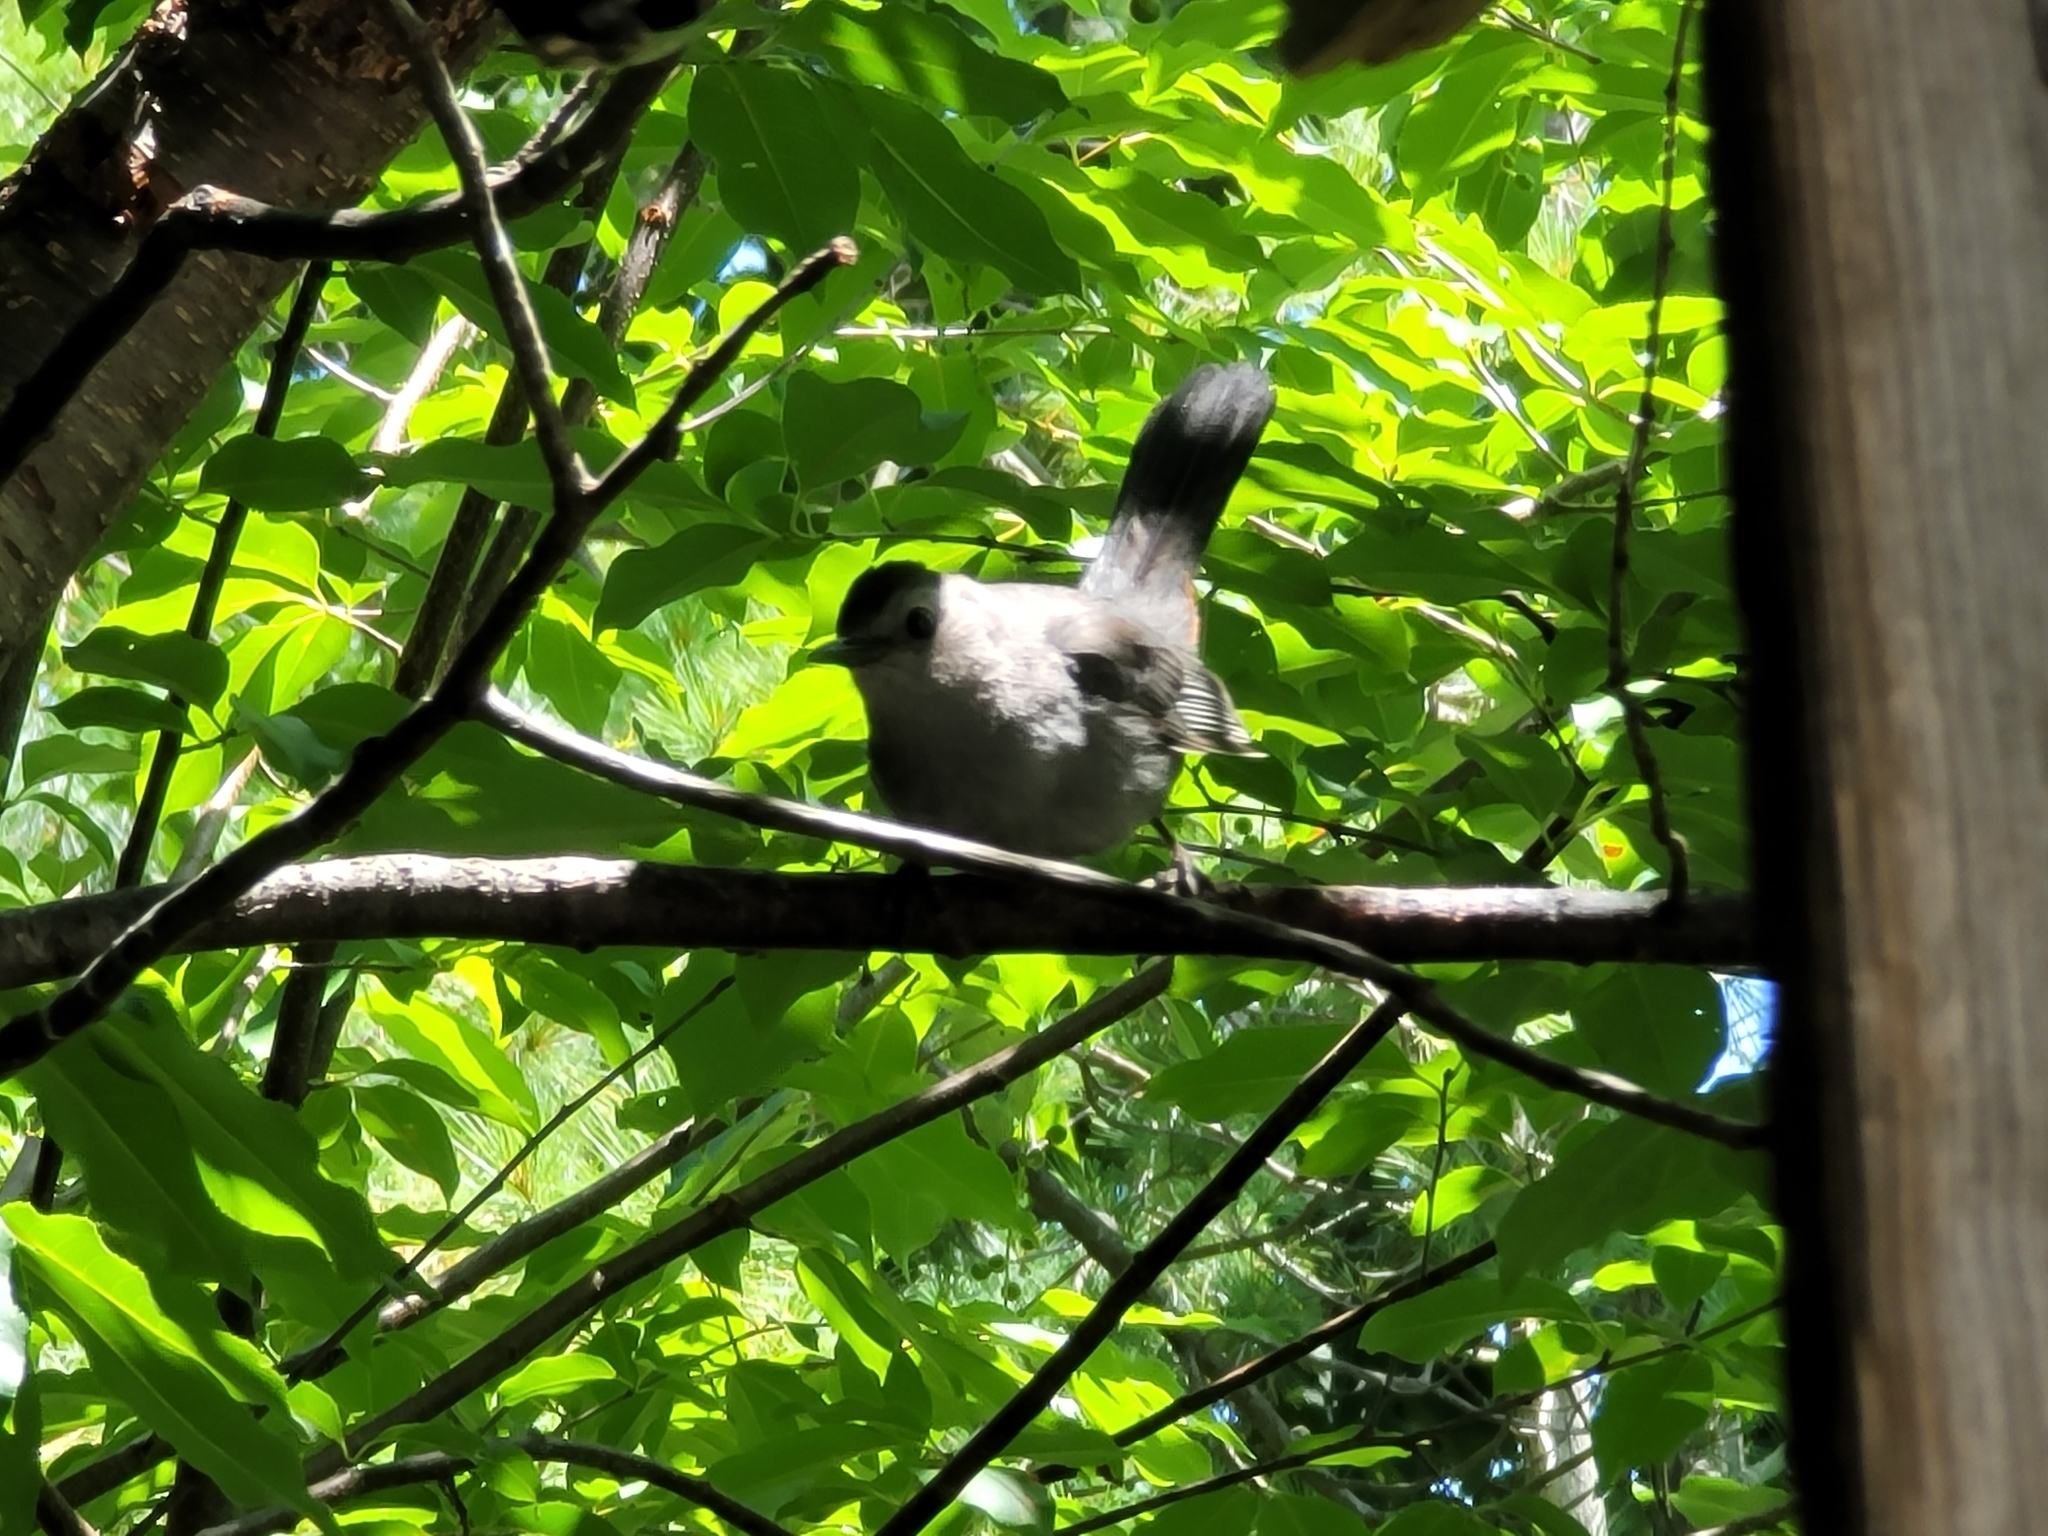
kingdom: Animalia
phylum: Chordata
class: Aves
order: Passeriformes
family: Mimidae
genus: Dumetella
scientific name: Dumetella carolinensis
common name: Gray catbird
